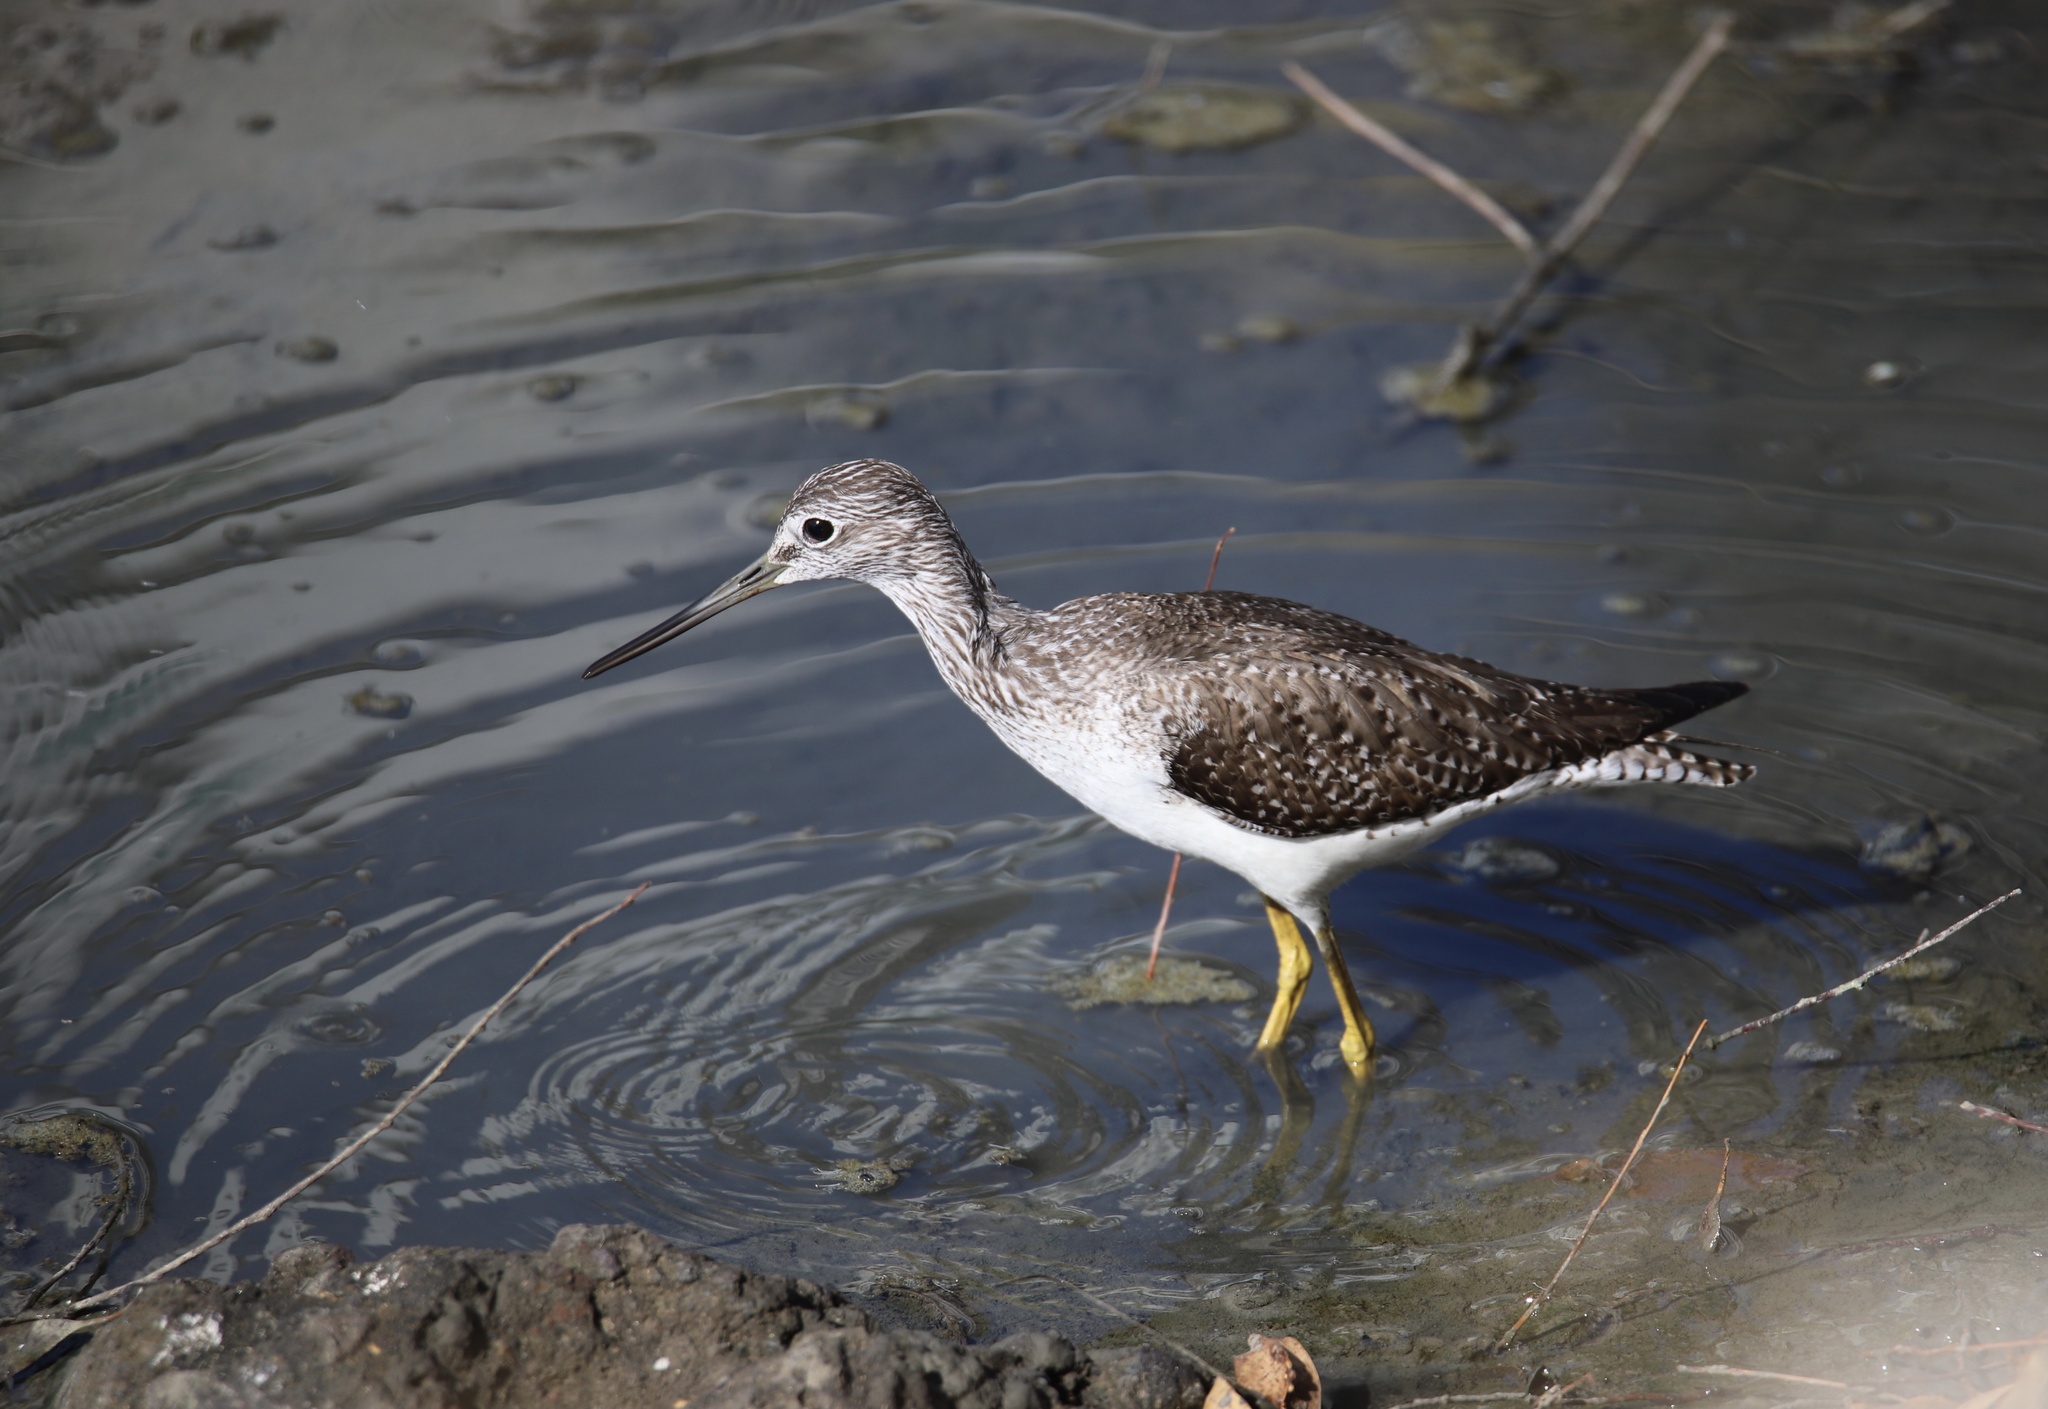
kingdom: Animalia
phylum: Chordata
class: Aves
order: Charadriiformes
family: Scolopacidae
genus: Tringa
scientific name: Tringa melanoleuca
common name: Greater yellowlegs
